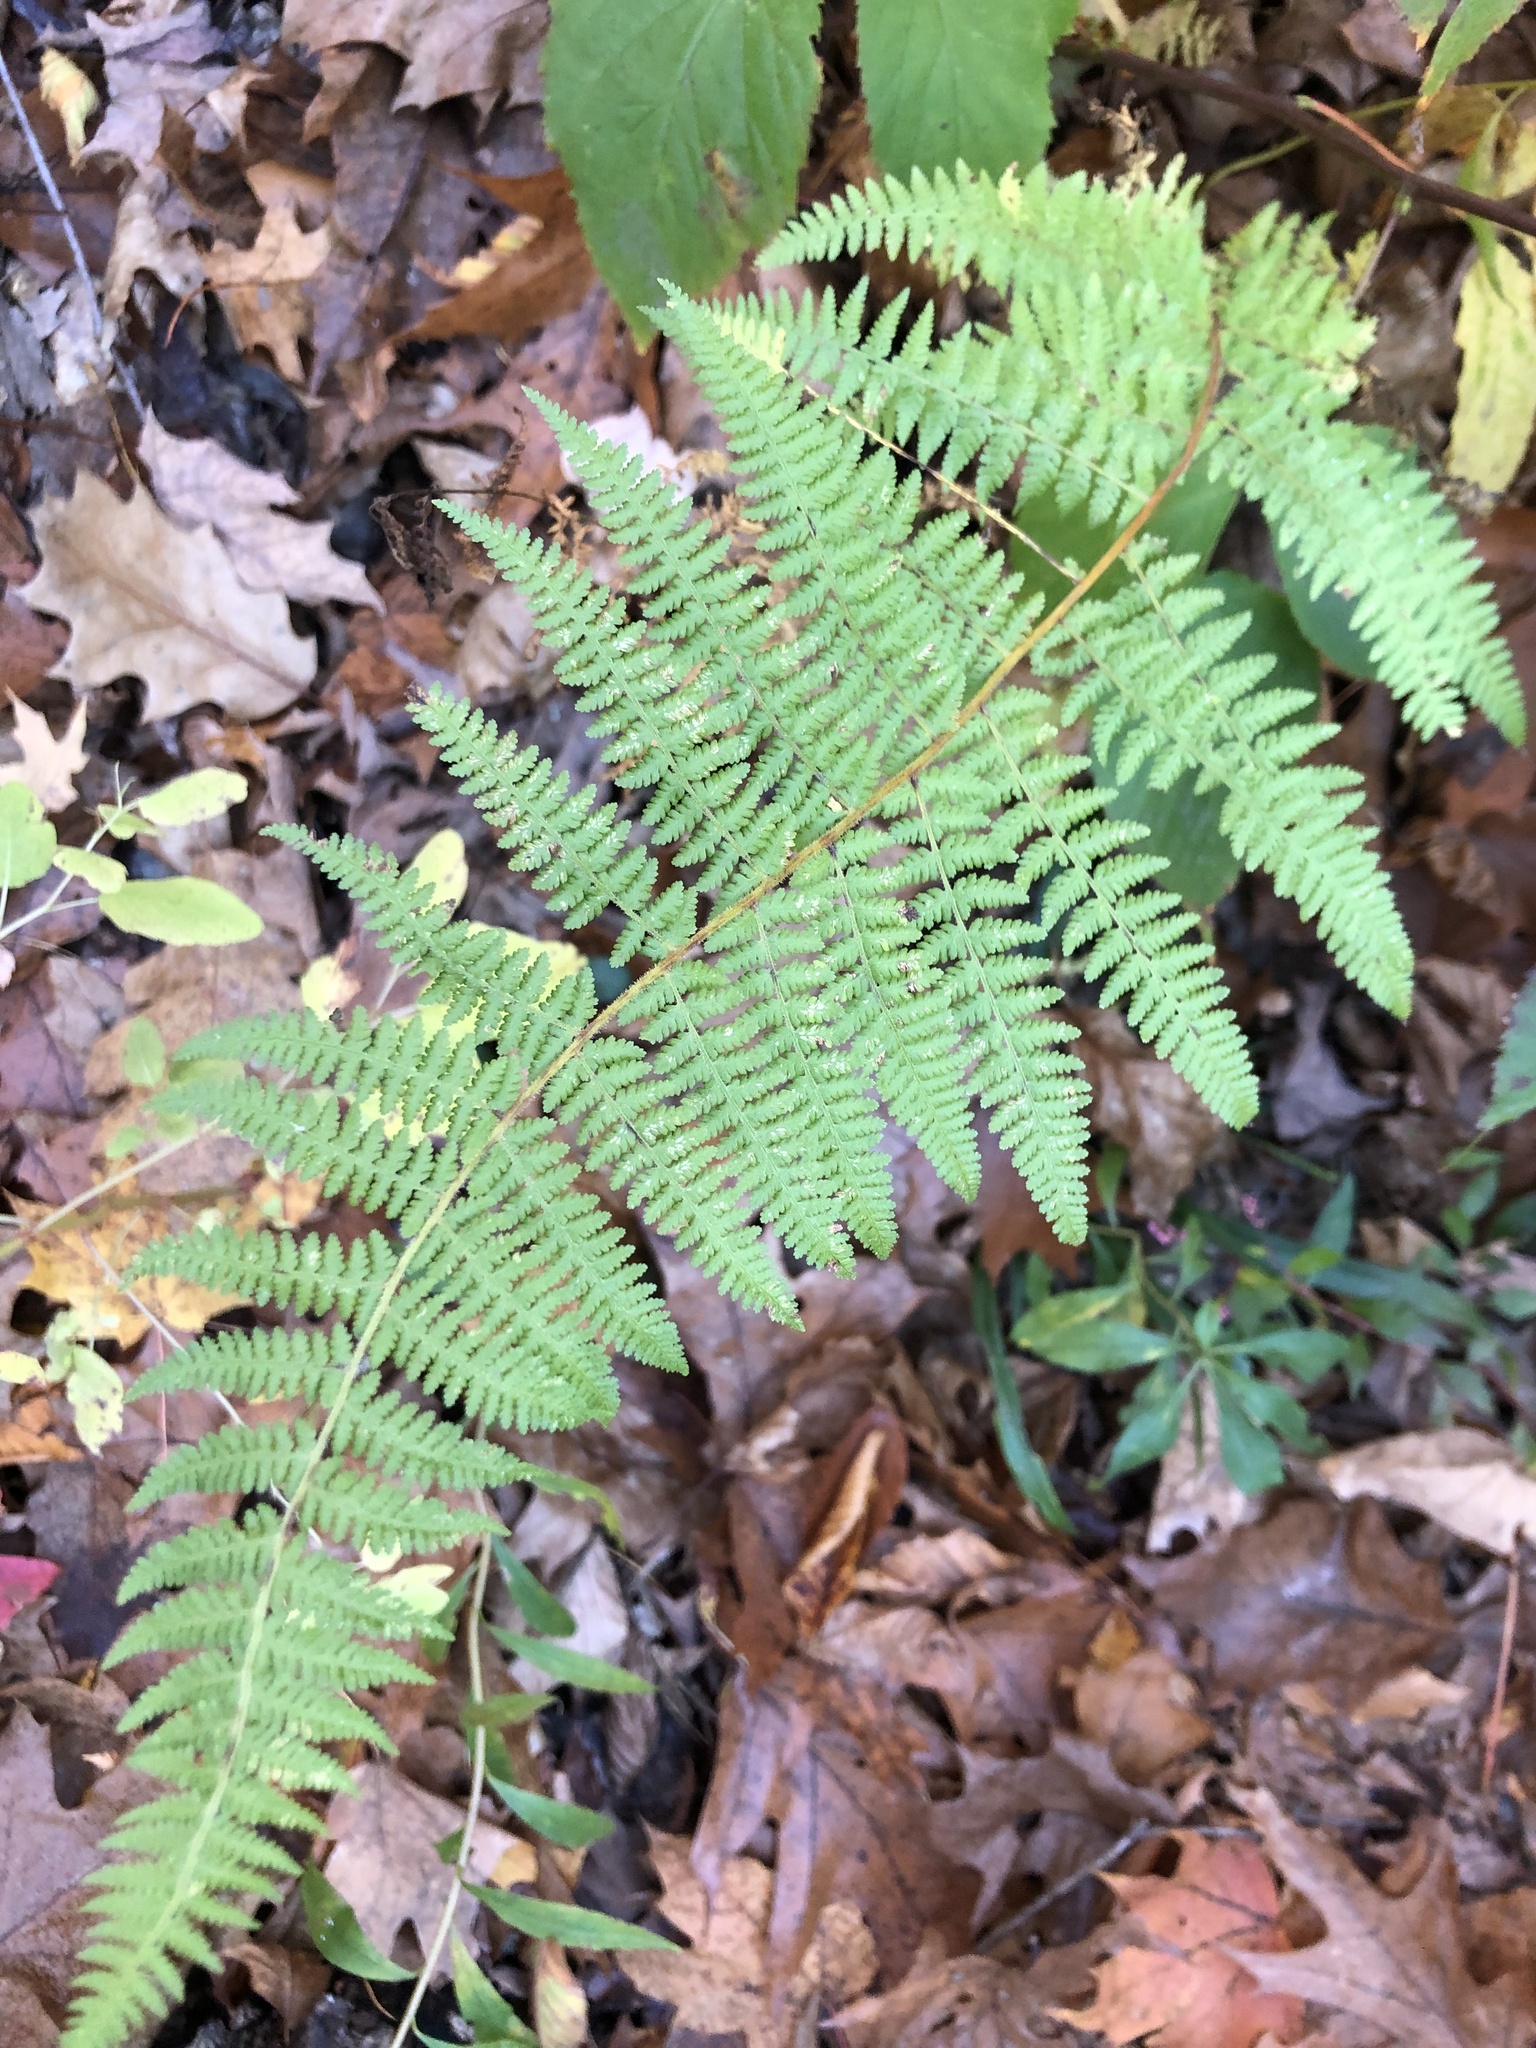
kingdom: Plantae
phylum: Tracheophyta
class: Polypodiopsida
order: Polypodiales
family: Dennstaedtiaceae
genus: Sitobolium
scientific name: Sitobolium punctilobum
